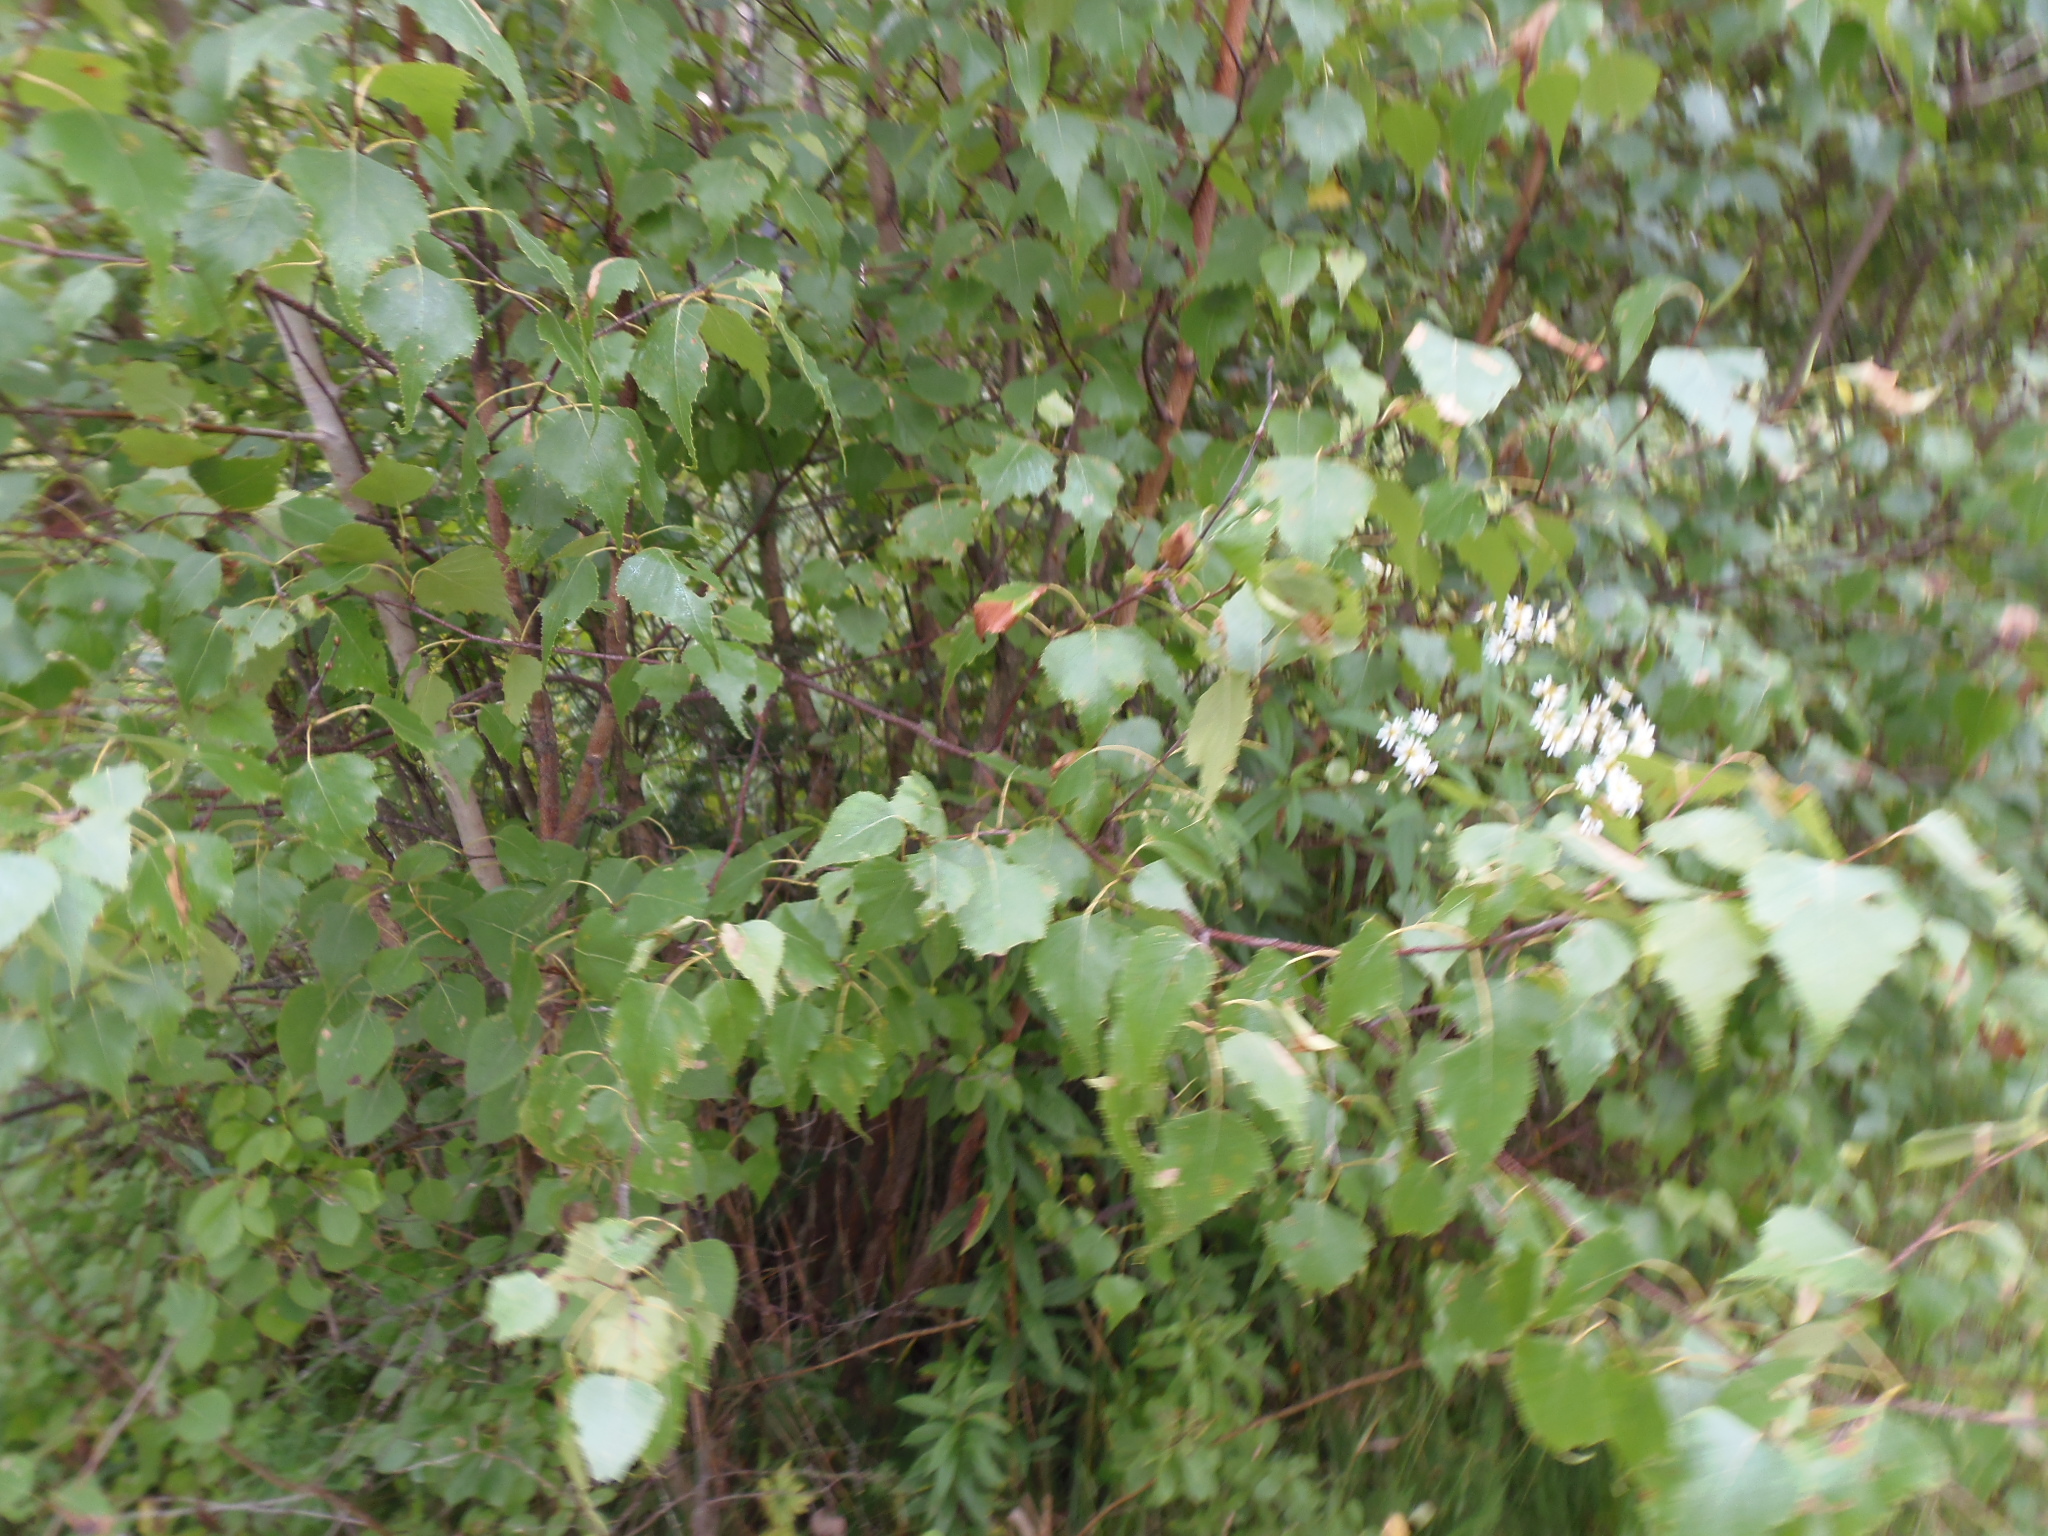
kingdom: Plantae
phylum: Tracheophyta
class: Magnoliopsida
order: Fagales
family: Betulaceae
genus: Betula
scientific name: Betula populifolia
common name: Fire birch
